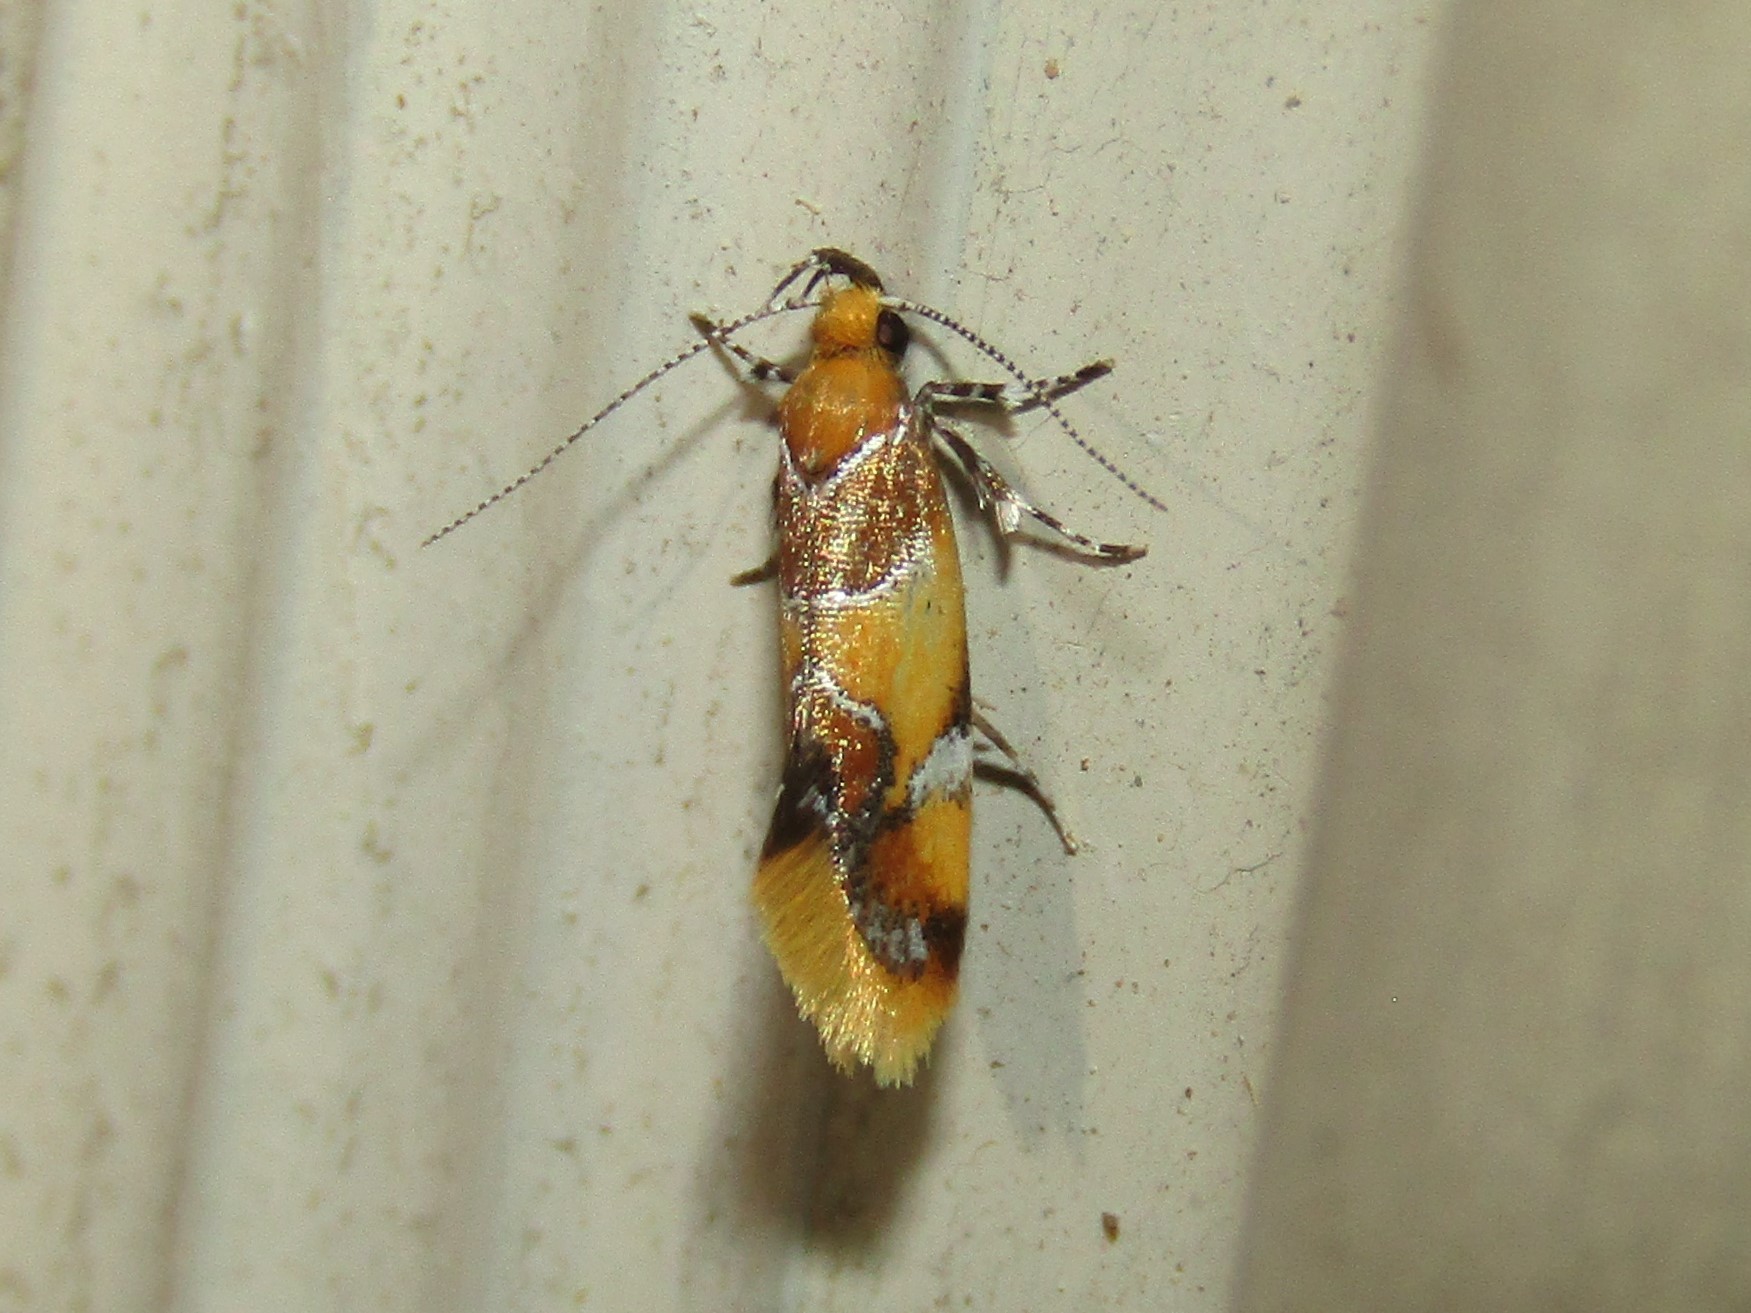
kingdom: Animalia
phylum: Arthropoda
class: Insecta
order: Lepidoptera
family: Oecophoridae
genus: Callima
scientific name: Callima argenticinctella
